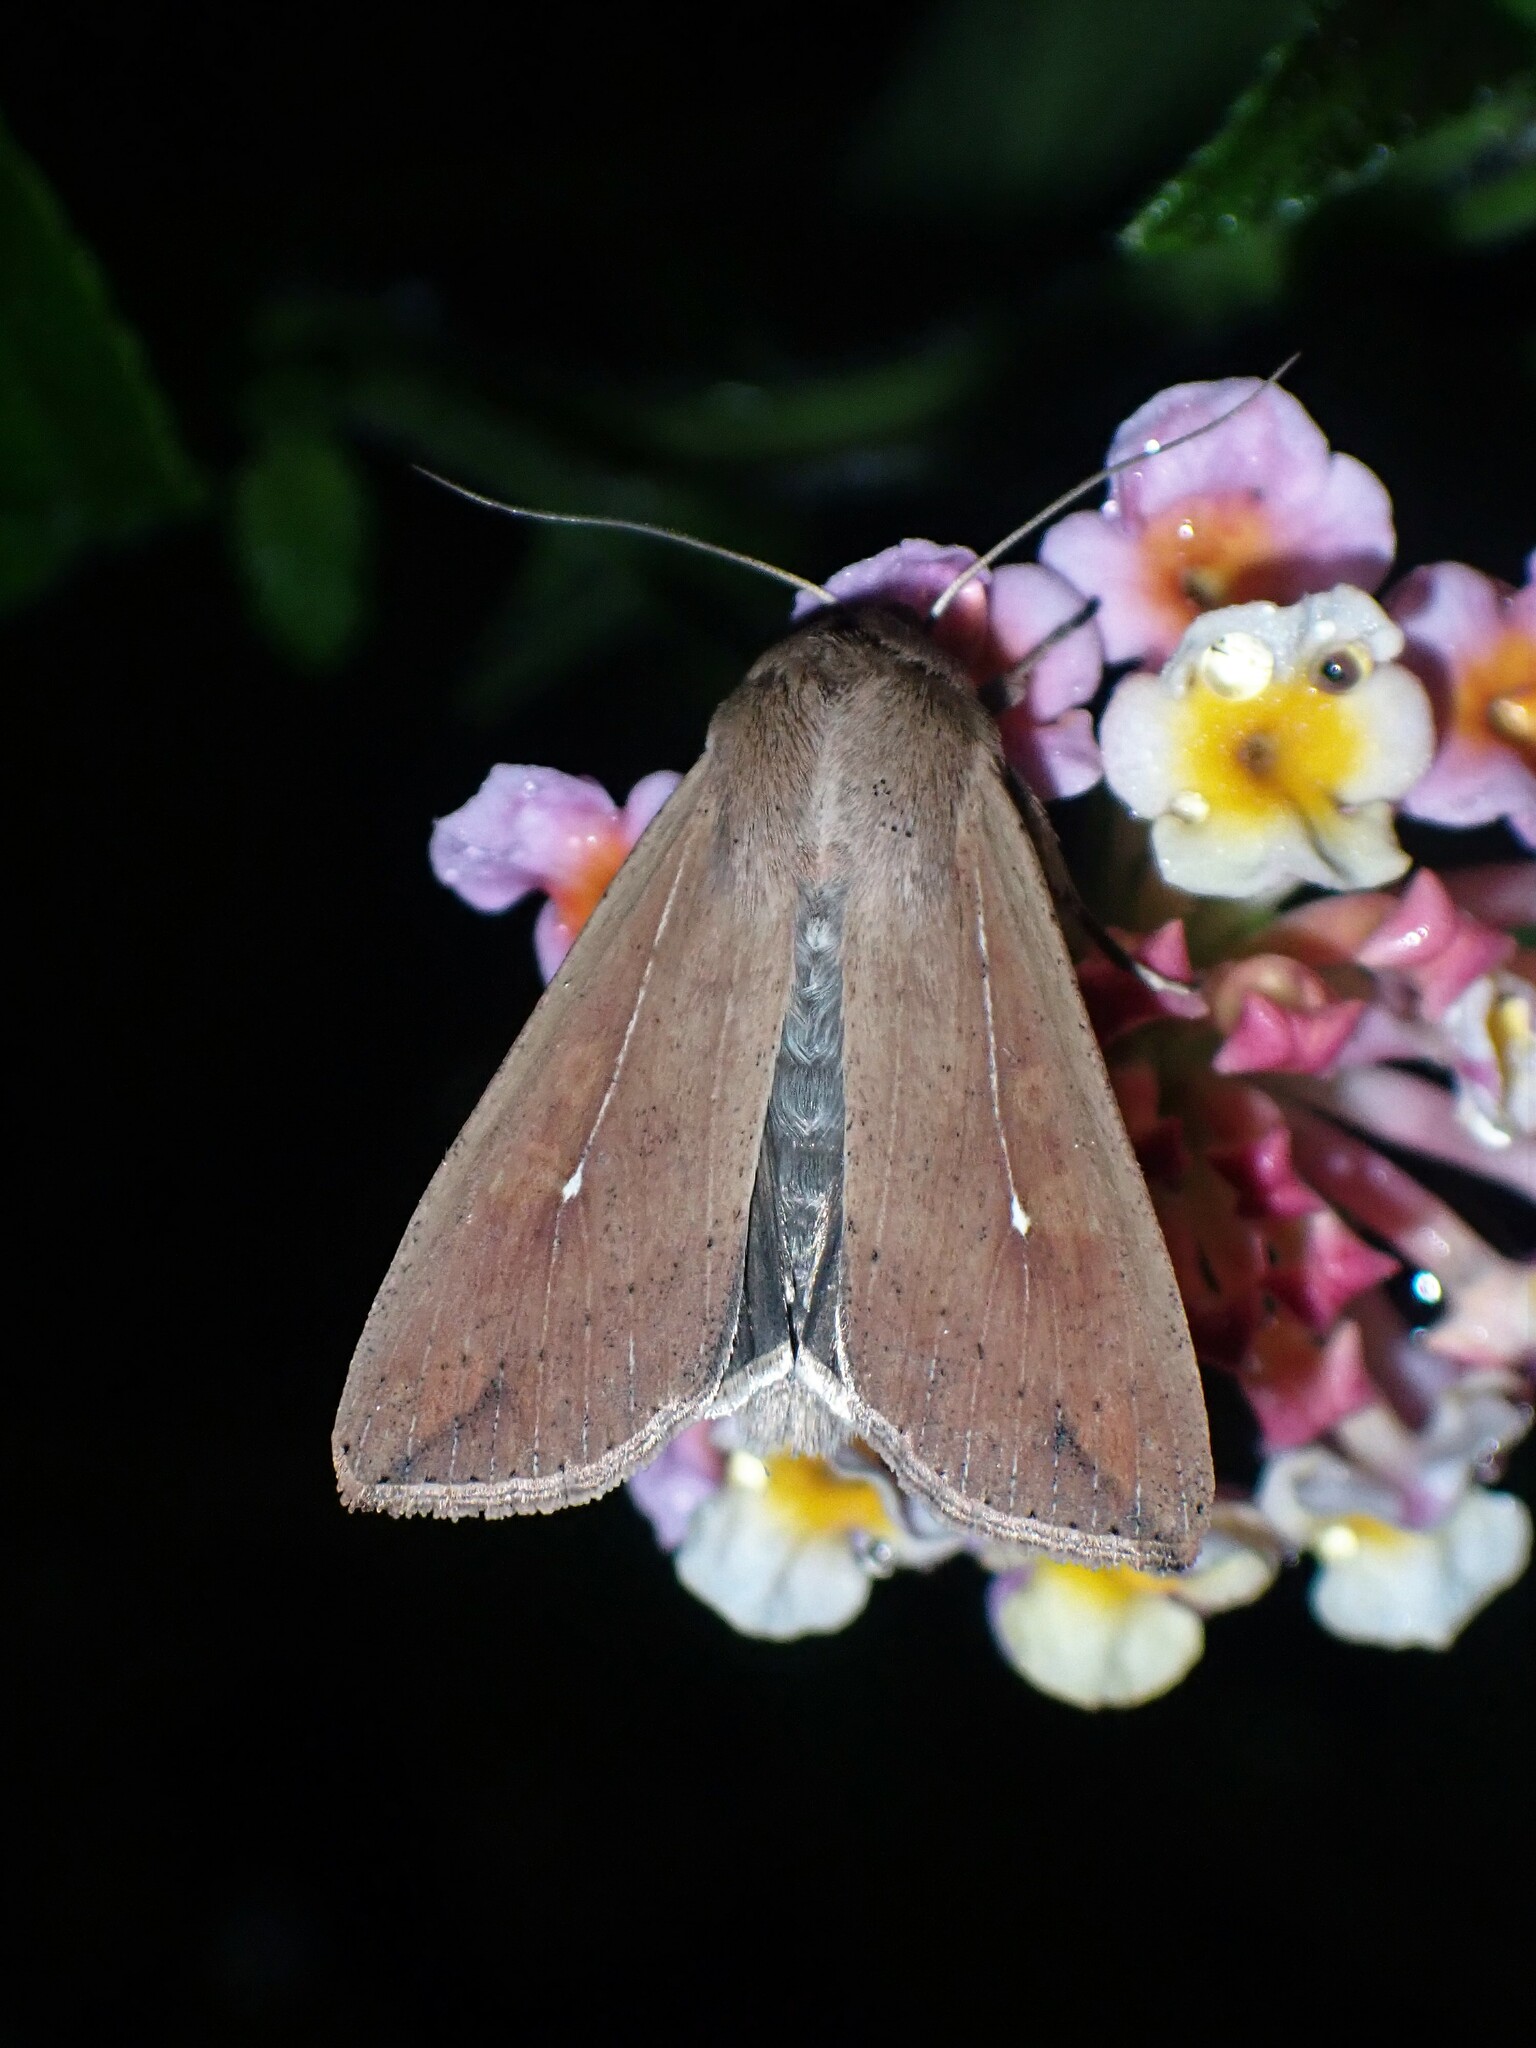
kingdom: Animalia
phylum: Arthropoda
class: Insecta
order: Lepidoptera
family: Noctuidae
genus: Mythimna
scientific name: Mythimna unipuncta
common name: White-speck
